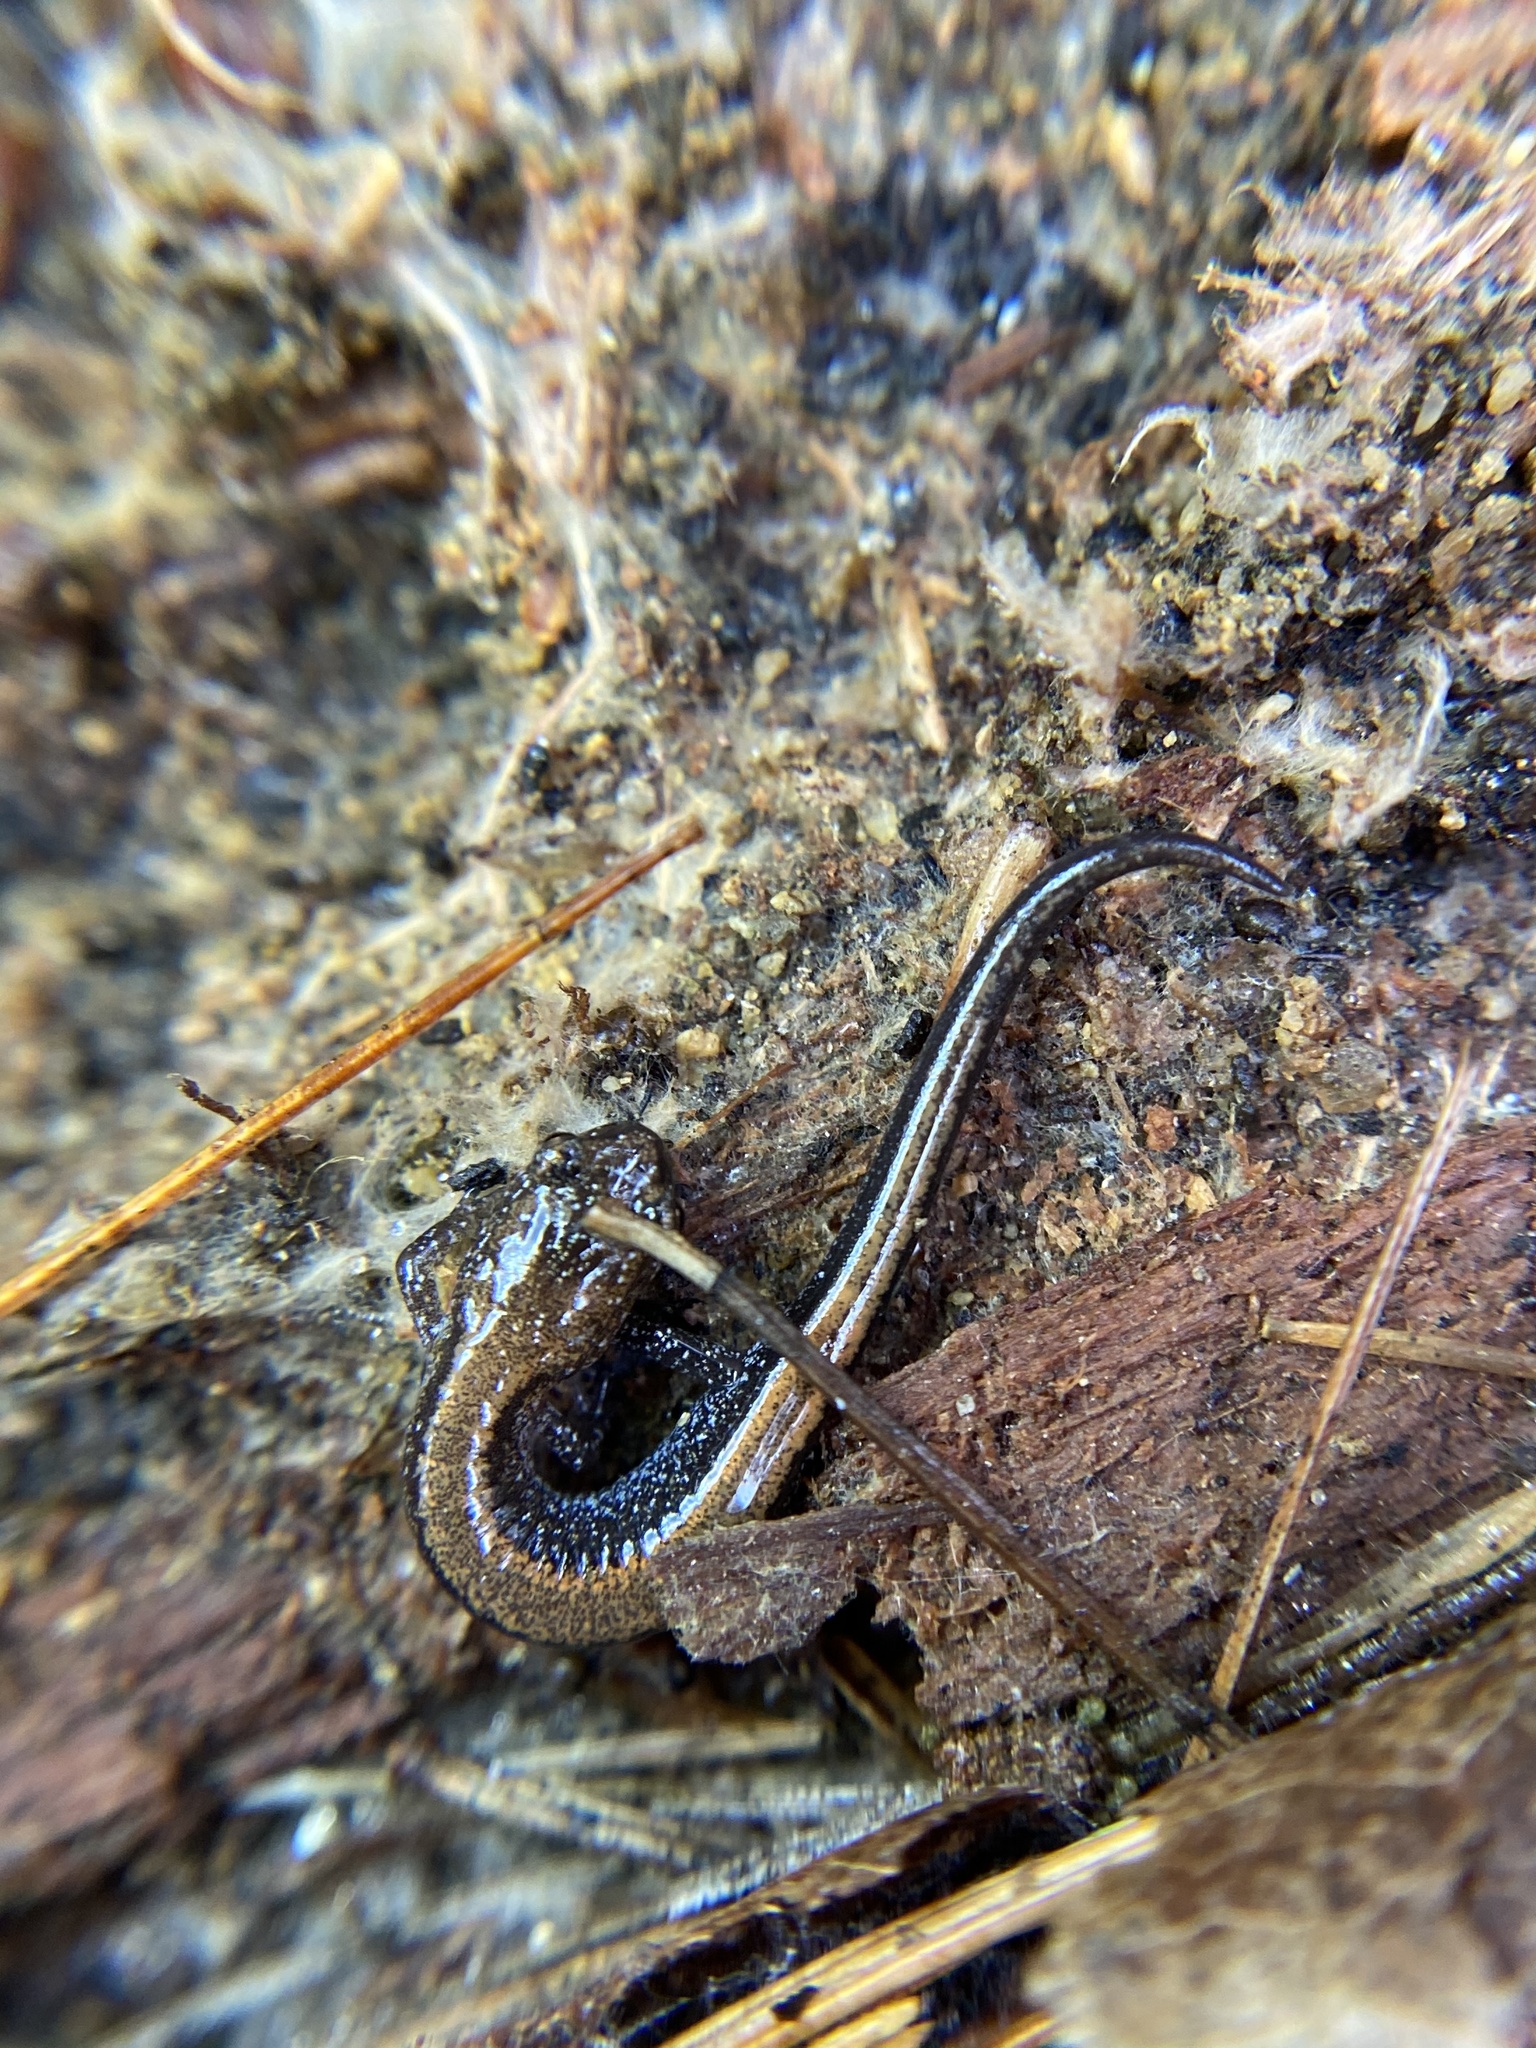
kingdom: Animalia
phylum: Chordata
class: Amphibia
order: Caudata
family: Plethodontidae
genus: Plethodon
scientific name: Plethodon cinereus
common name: Redback salamander
